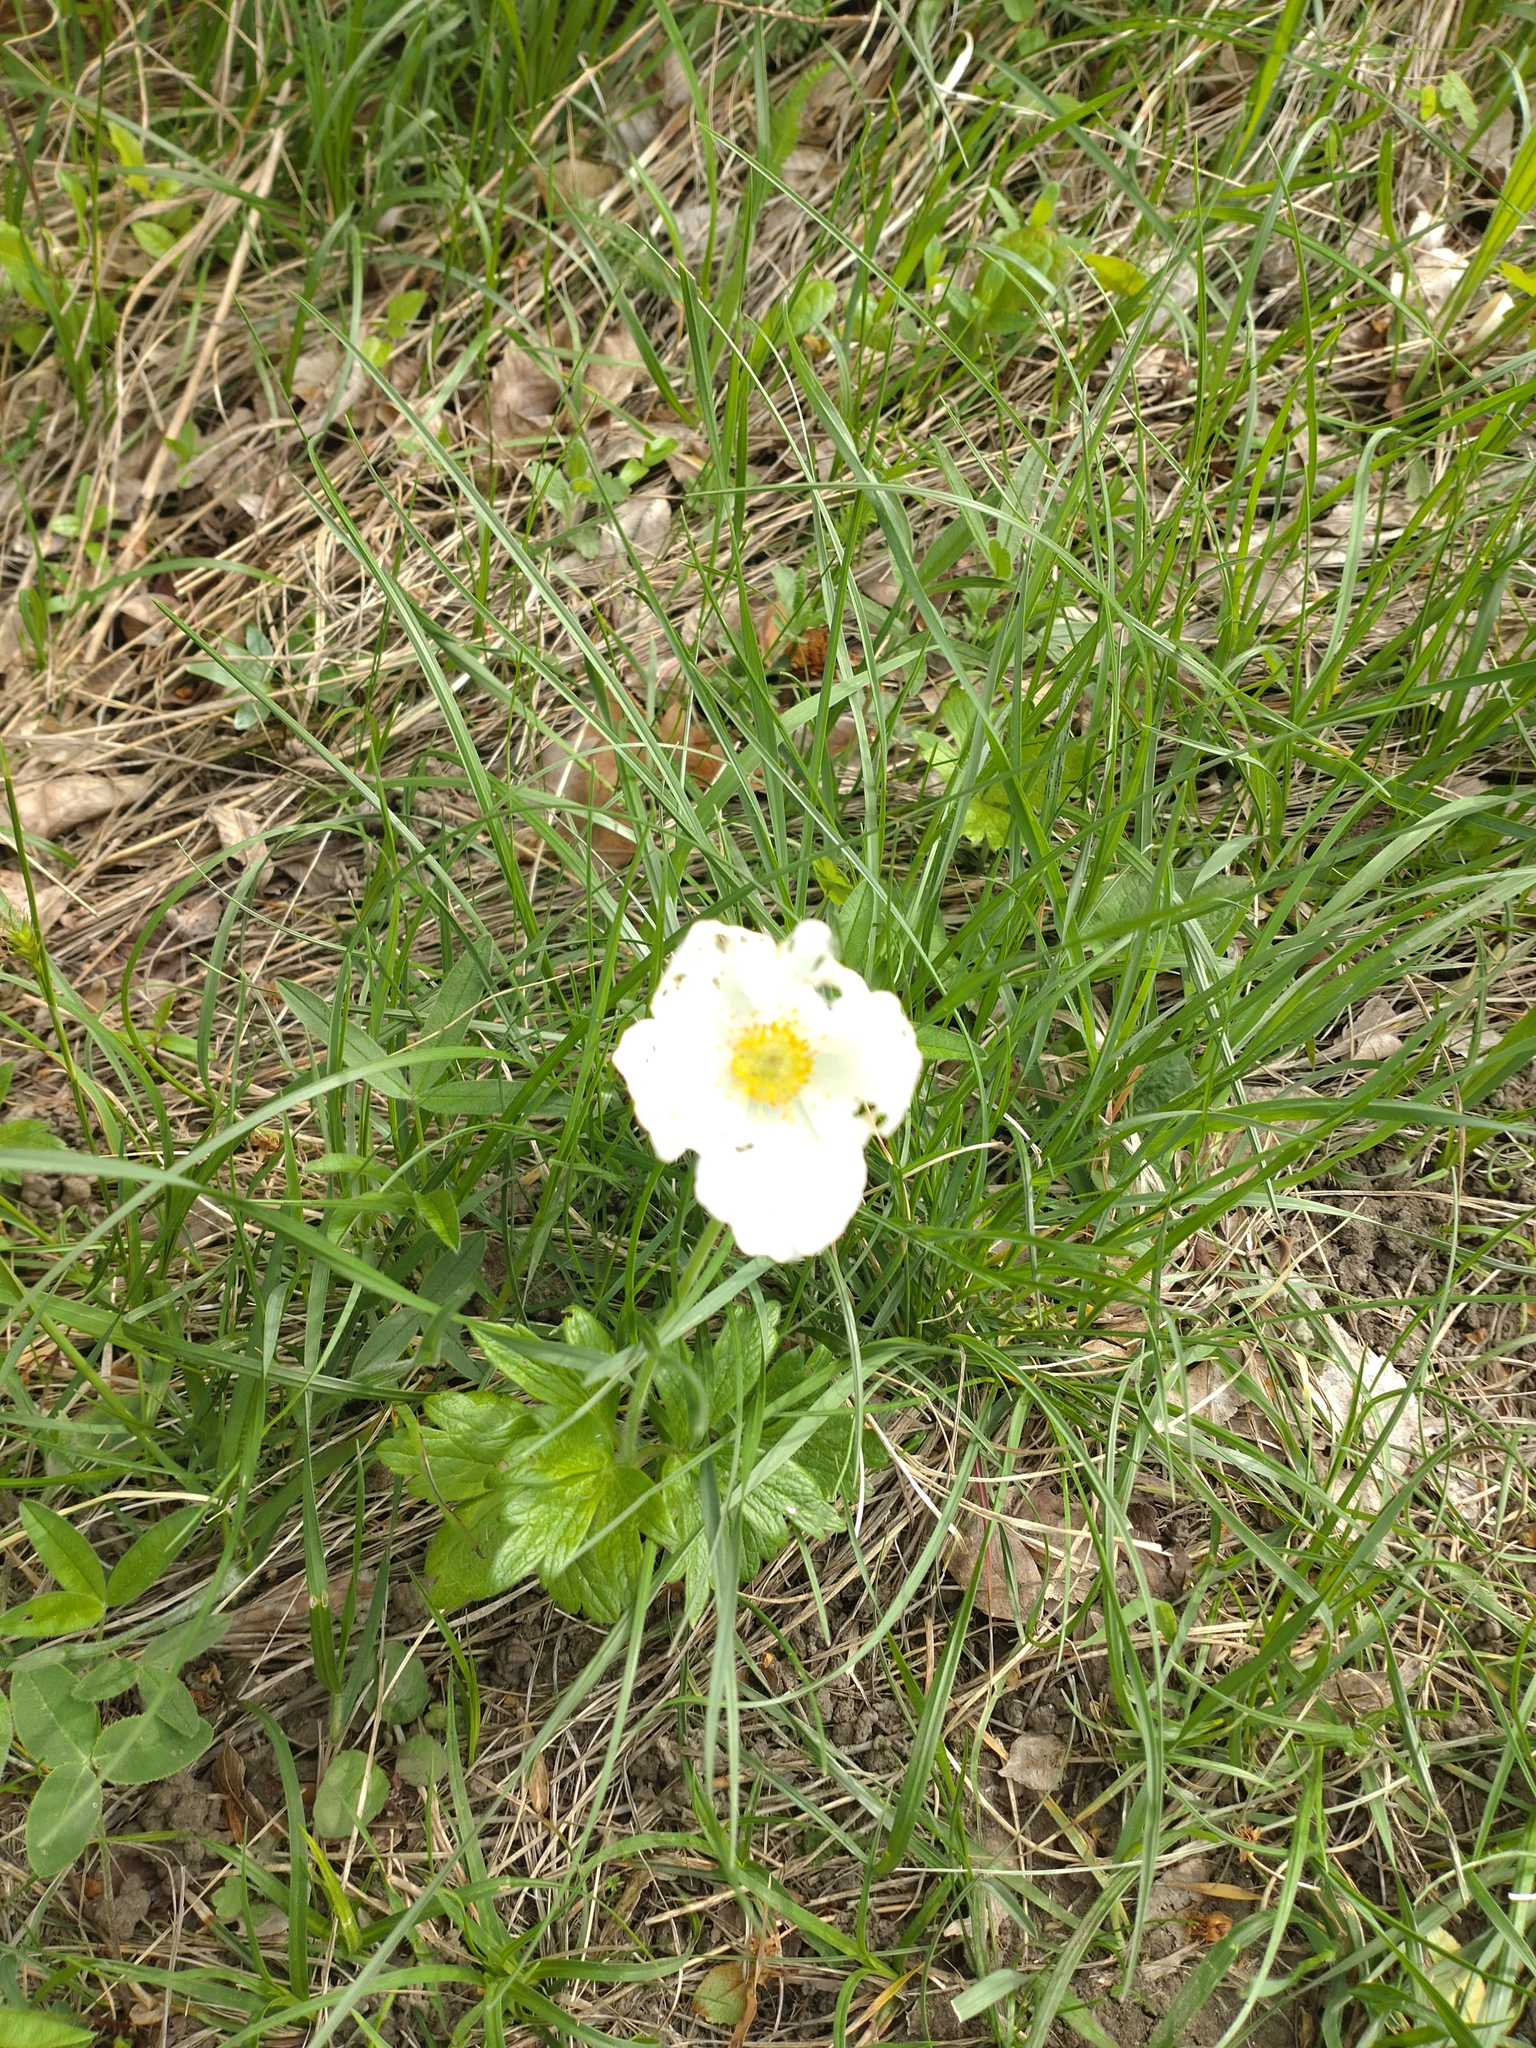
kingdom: Plantae
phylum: Tracheophyta
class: Magnoliopsida
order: Ranunculales
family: Ranunculaceae
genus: Anemone
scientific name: Anemone sylvestris
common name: Snowdrop anemone
